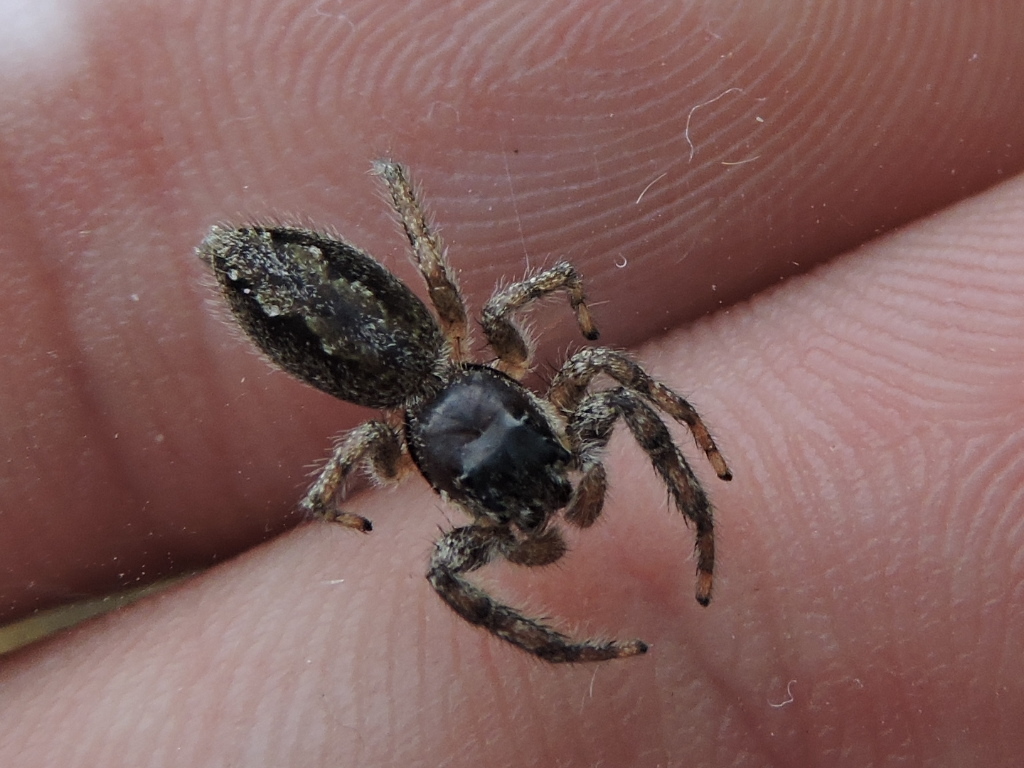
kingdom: Animalia
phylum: Arthropoda
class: Arachnida
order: Araneae
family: Salticidae
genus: Platycryptus
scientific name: Platycryptus undatus
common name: Tan jumping spider
